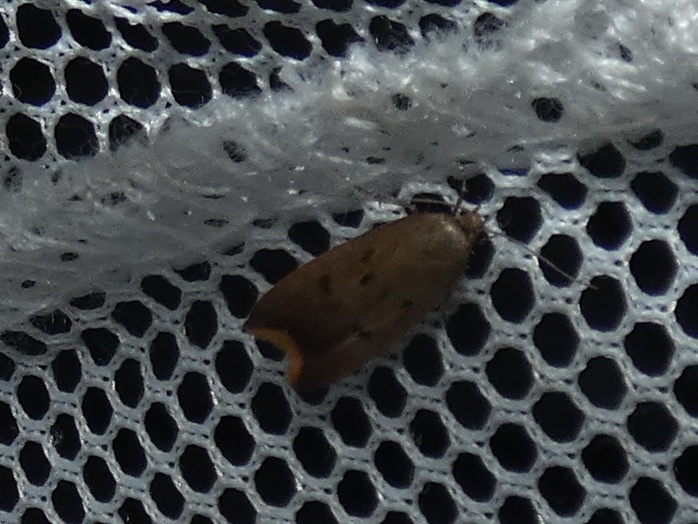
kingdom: Animalia
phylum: Arthropoda
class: Insecta
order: Lepidoptera
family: Oecophoridae
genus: Tachystola
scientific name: Tachystola acroxantha
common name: Ruddy streak
